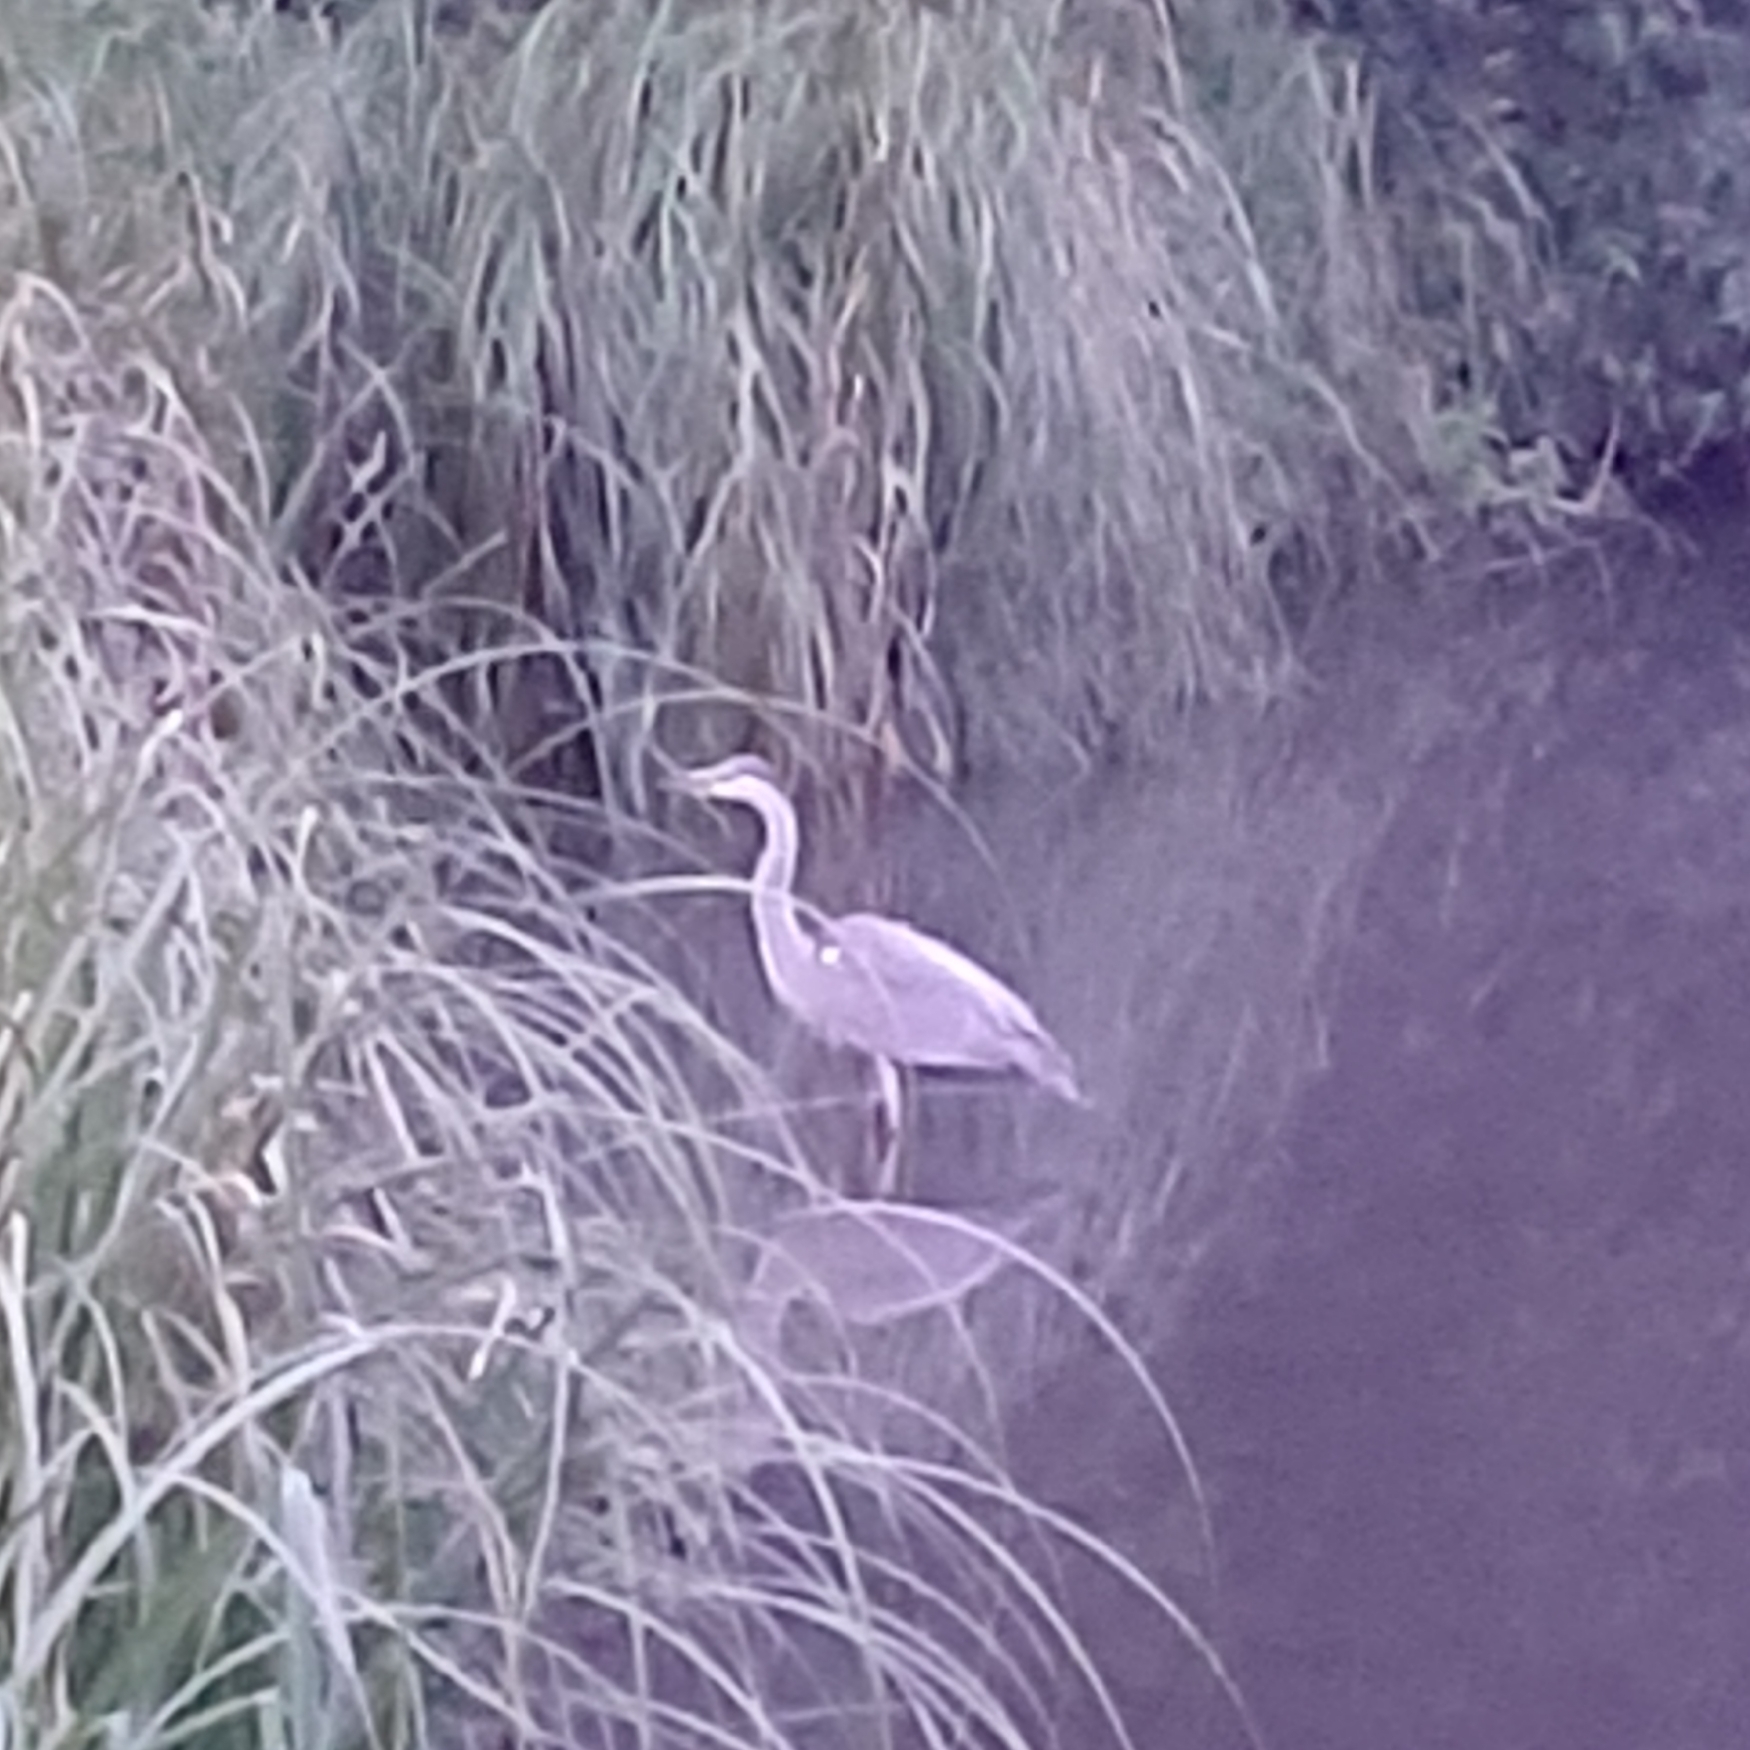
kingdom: Animalia
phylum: Chordata
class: Aves
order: Pelecaniformes
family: Ardeidae
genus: Ardea
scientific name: Ardea cinerea
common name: Grey heron
